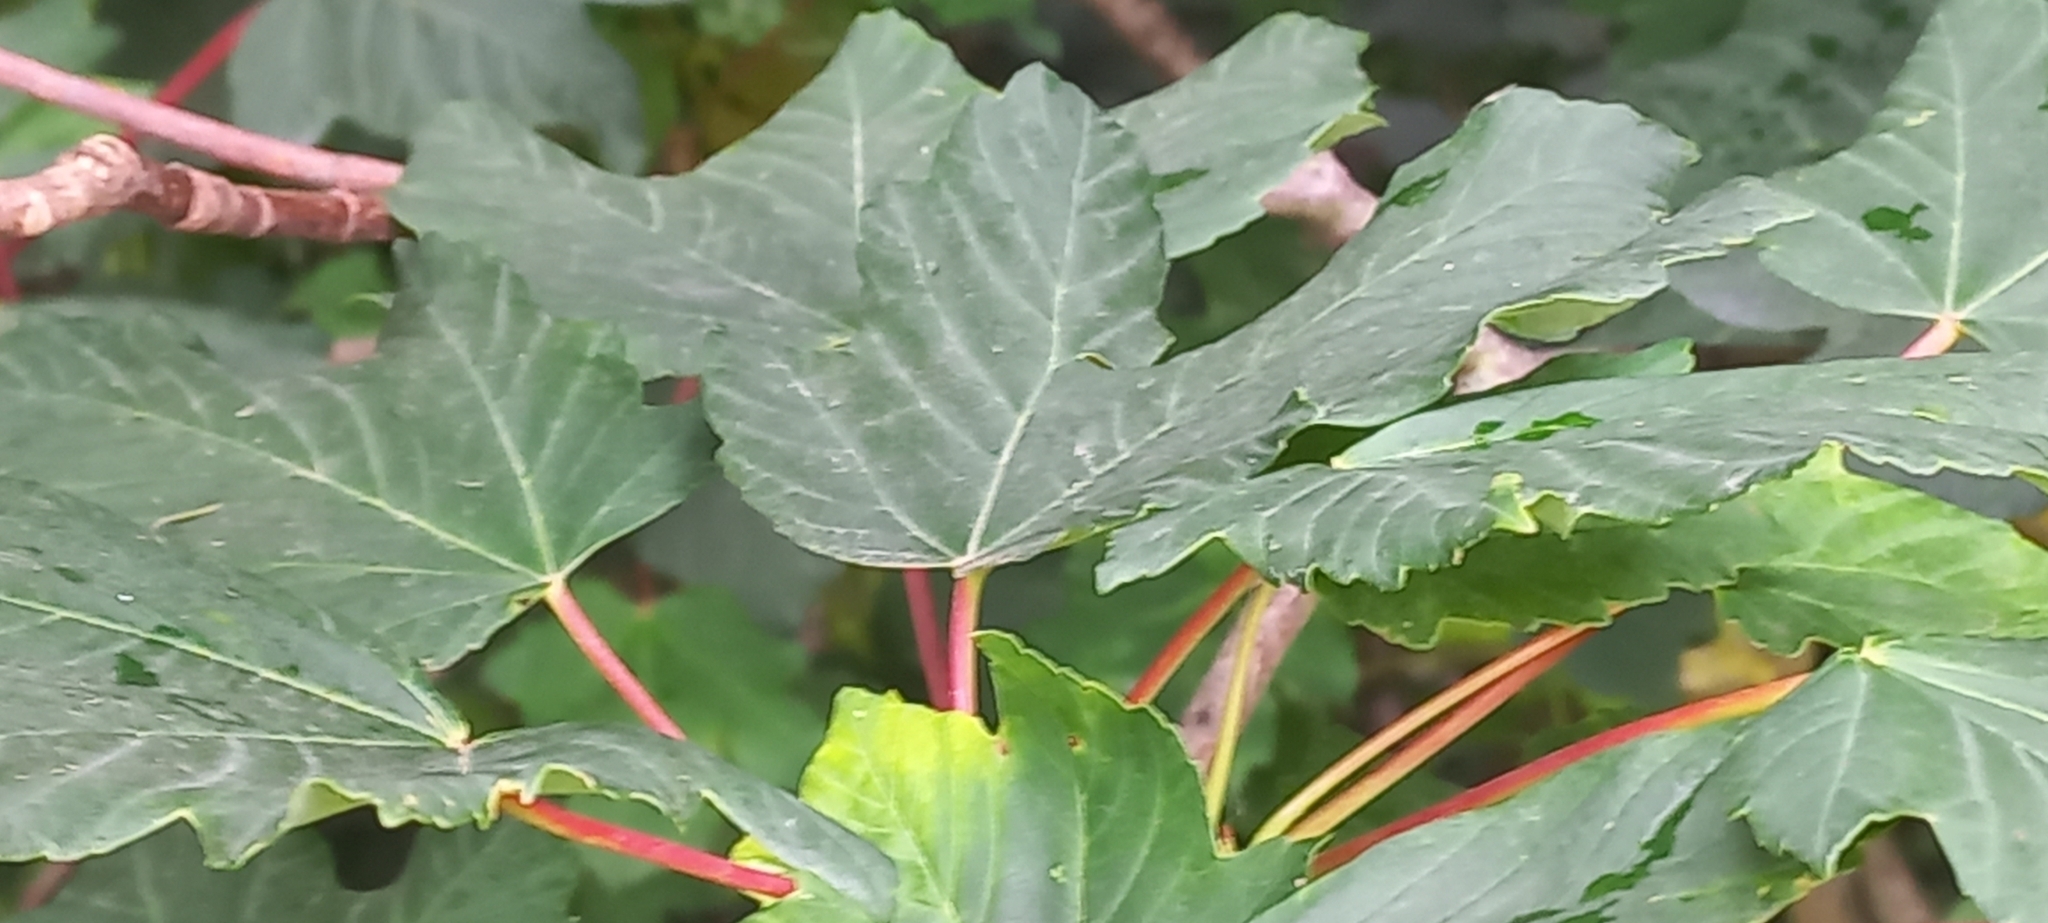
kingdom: Plantae
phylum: Tracheophyta
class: Magnoliopsida
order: Sapindales
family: Sapindaceae
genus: Acer
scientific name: Acer pseudoplatanus
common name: Sycamore
